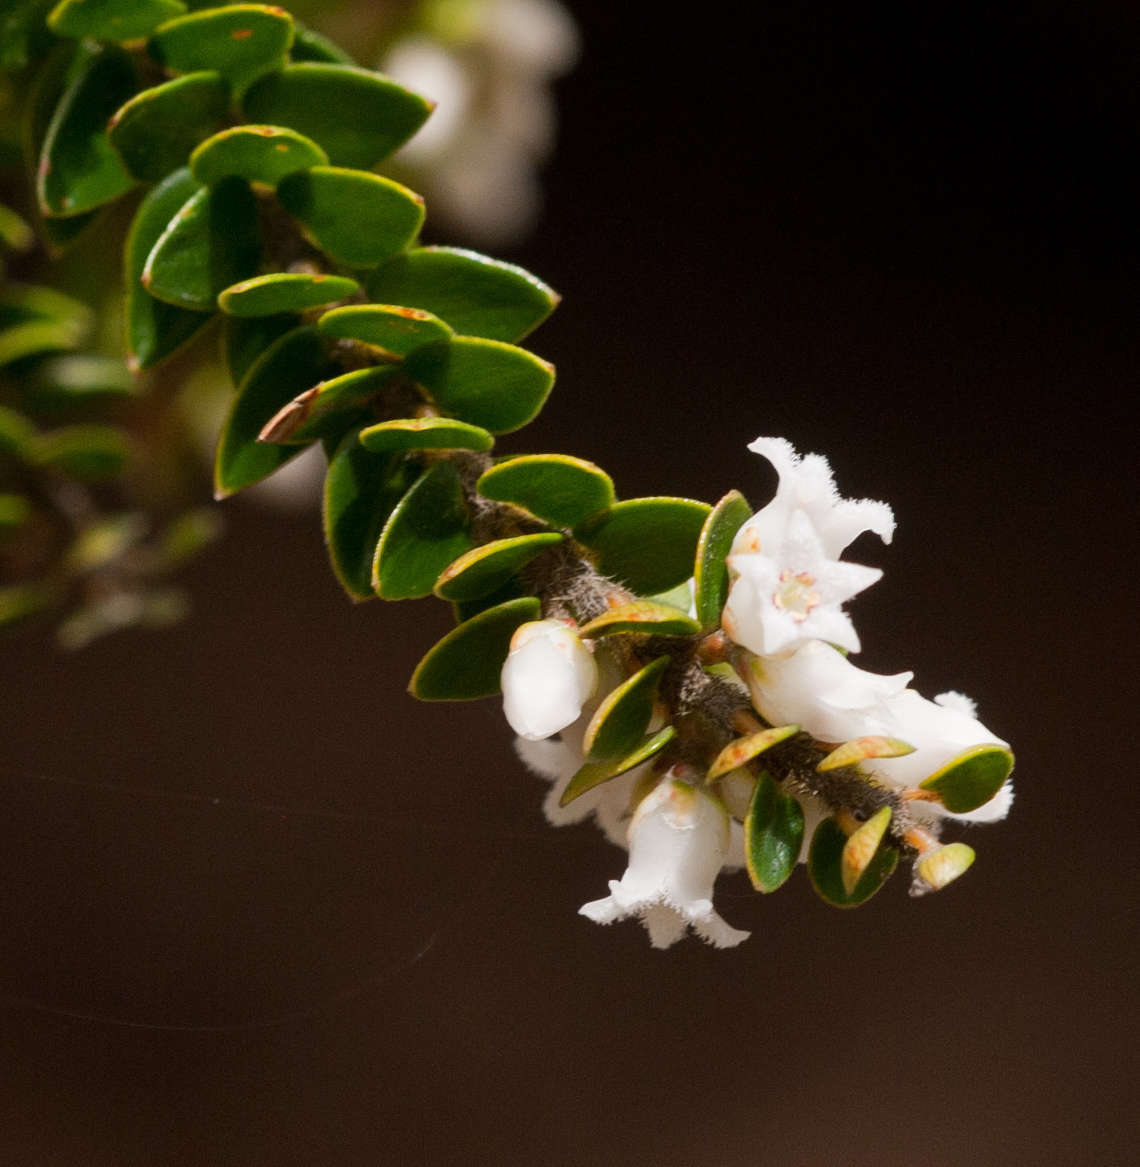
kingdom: Plantae
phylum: Tracheophyta
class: Magnoliopsida
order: Ericales
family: Ericaceae
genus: Acrothamnus
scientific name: Acrothamnus maccraei
